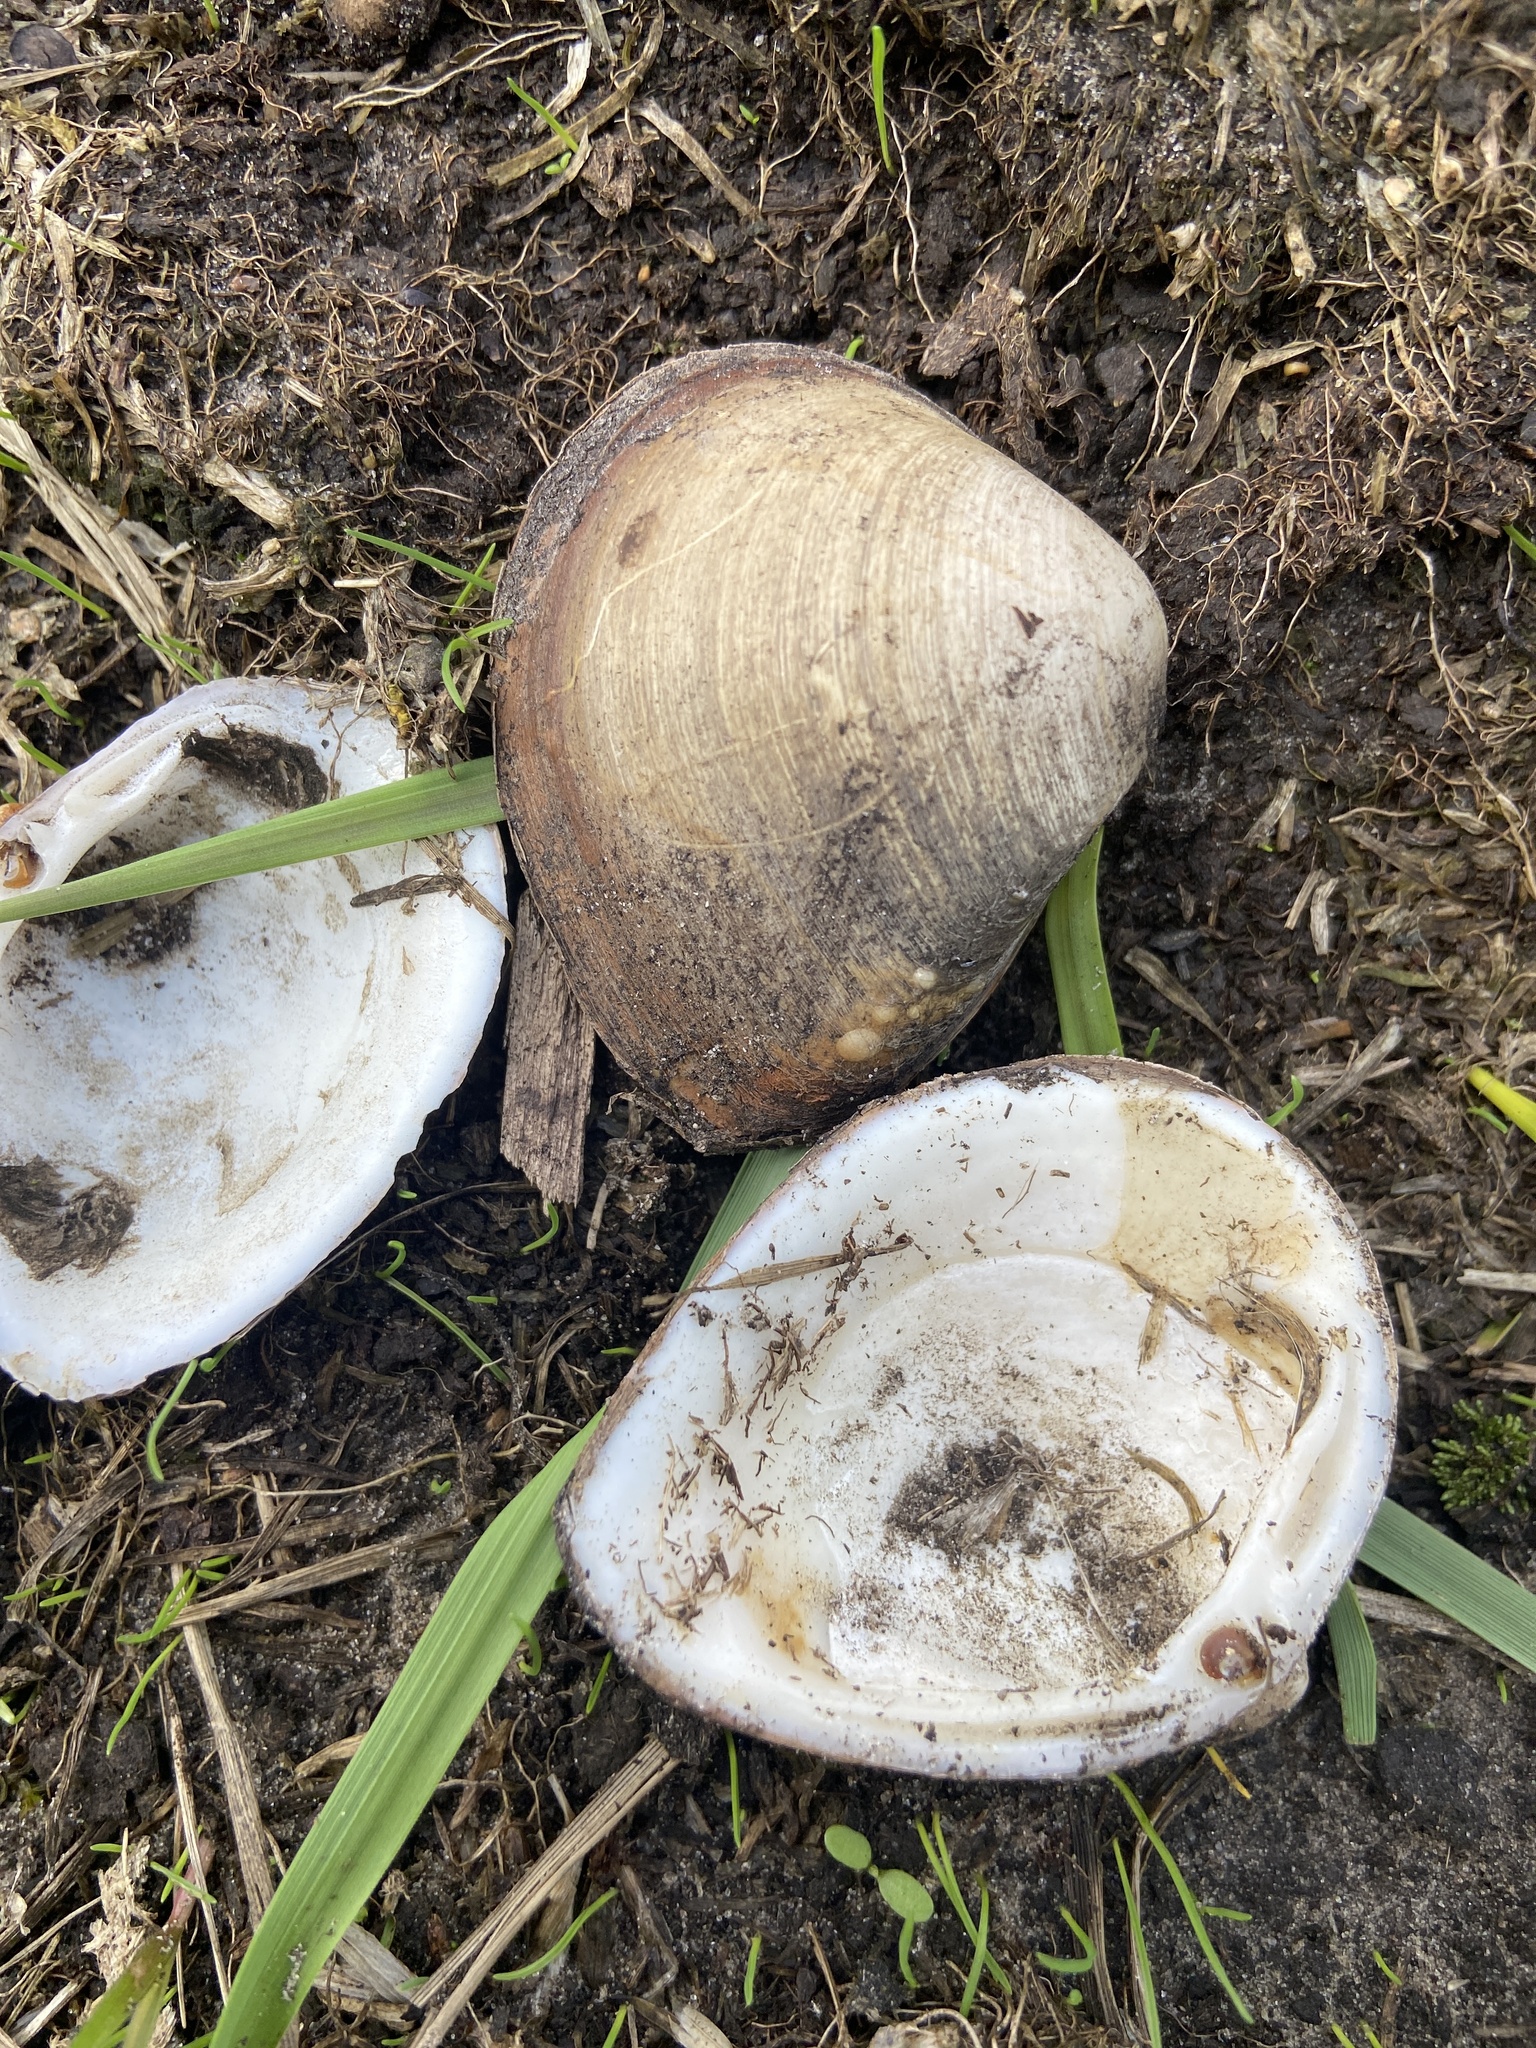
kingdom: Animalia
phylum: Mollusca
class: Bivalvia
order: Venerida
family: Mactridae
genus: Rangia
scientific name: Rangia cuneata
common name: Atlantic rangia
